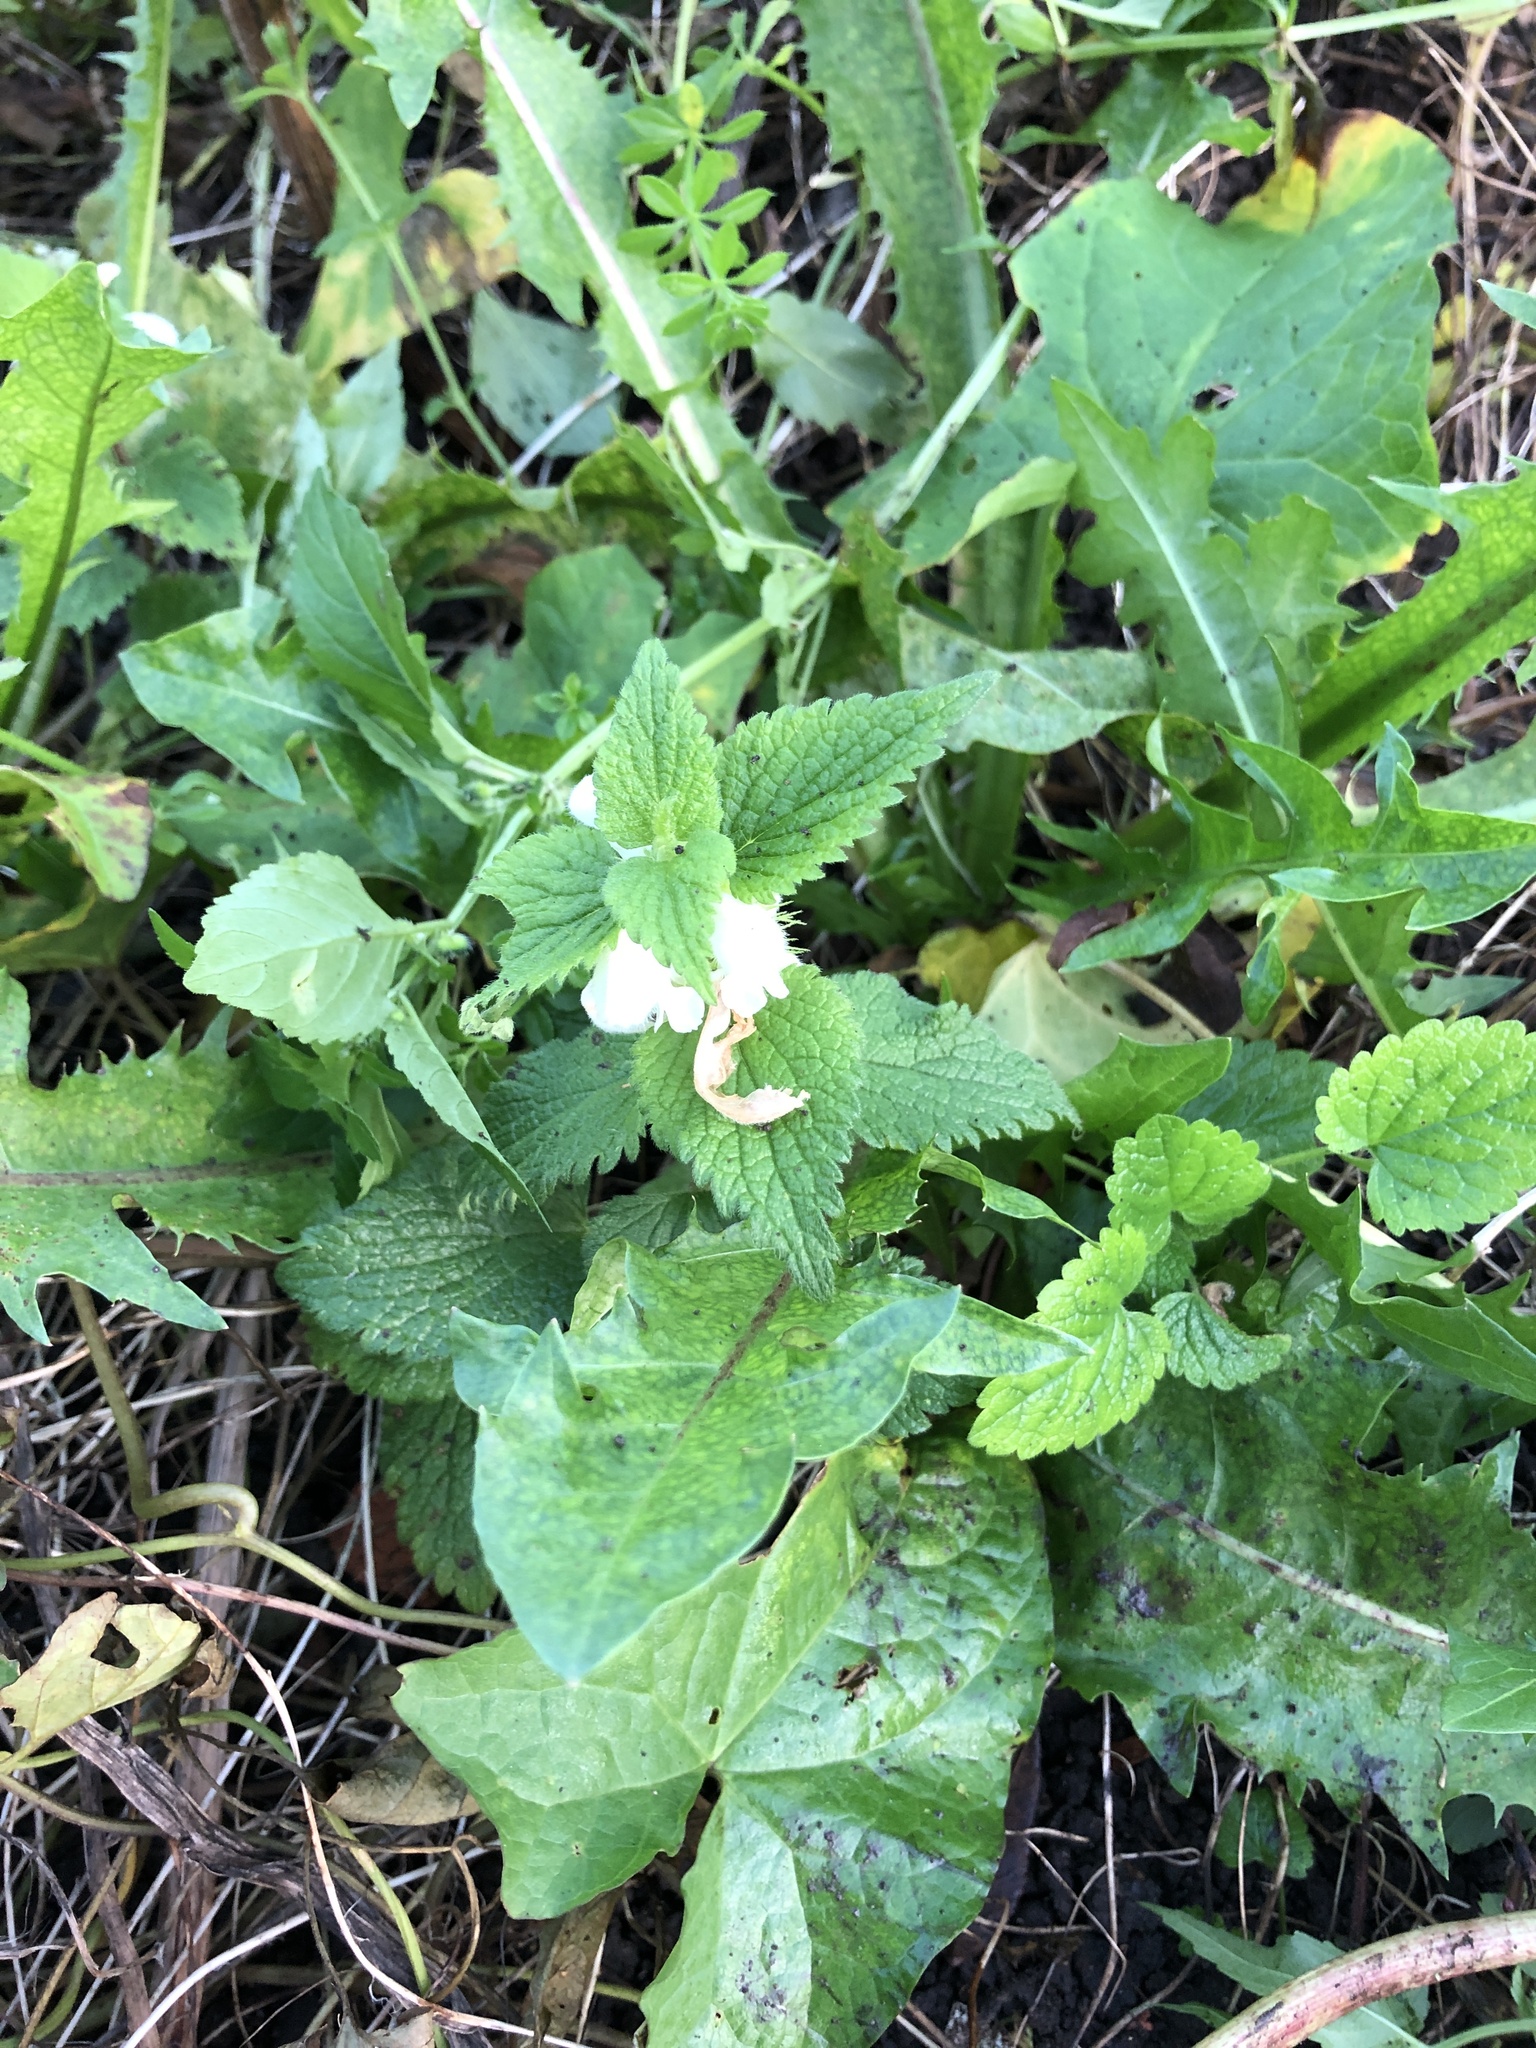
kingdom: Plantae
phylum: Tracheophyta
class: Magnoliopsida
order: Lamiales
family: Lamiaceae
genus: Lamium
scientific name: Lamium album
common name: White dead-nettle
